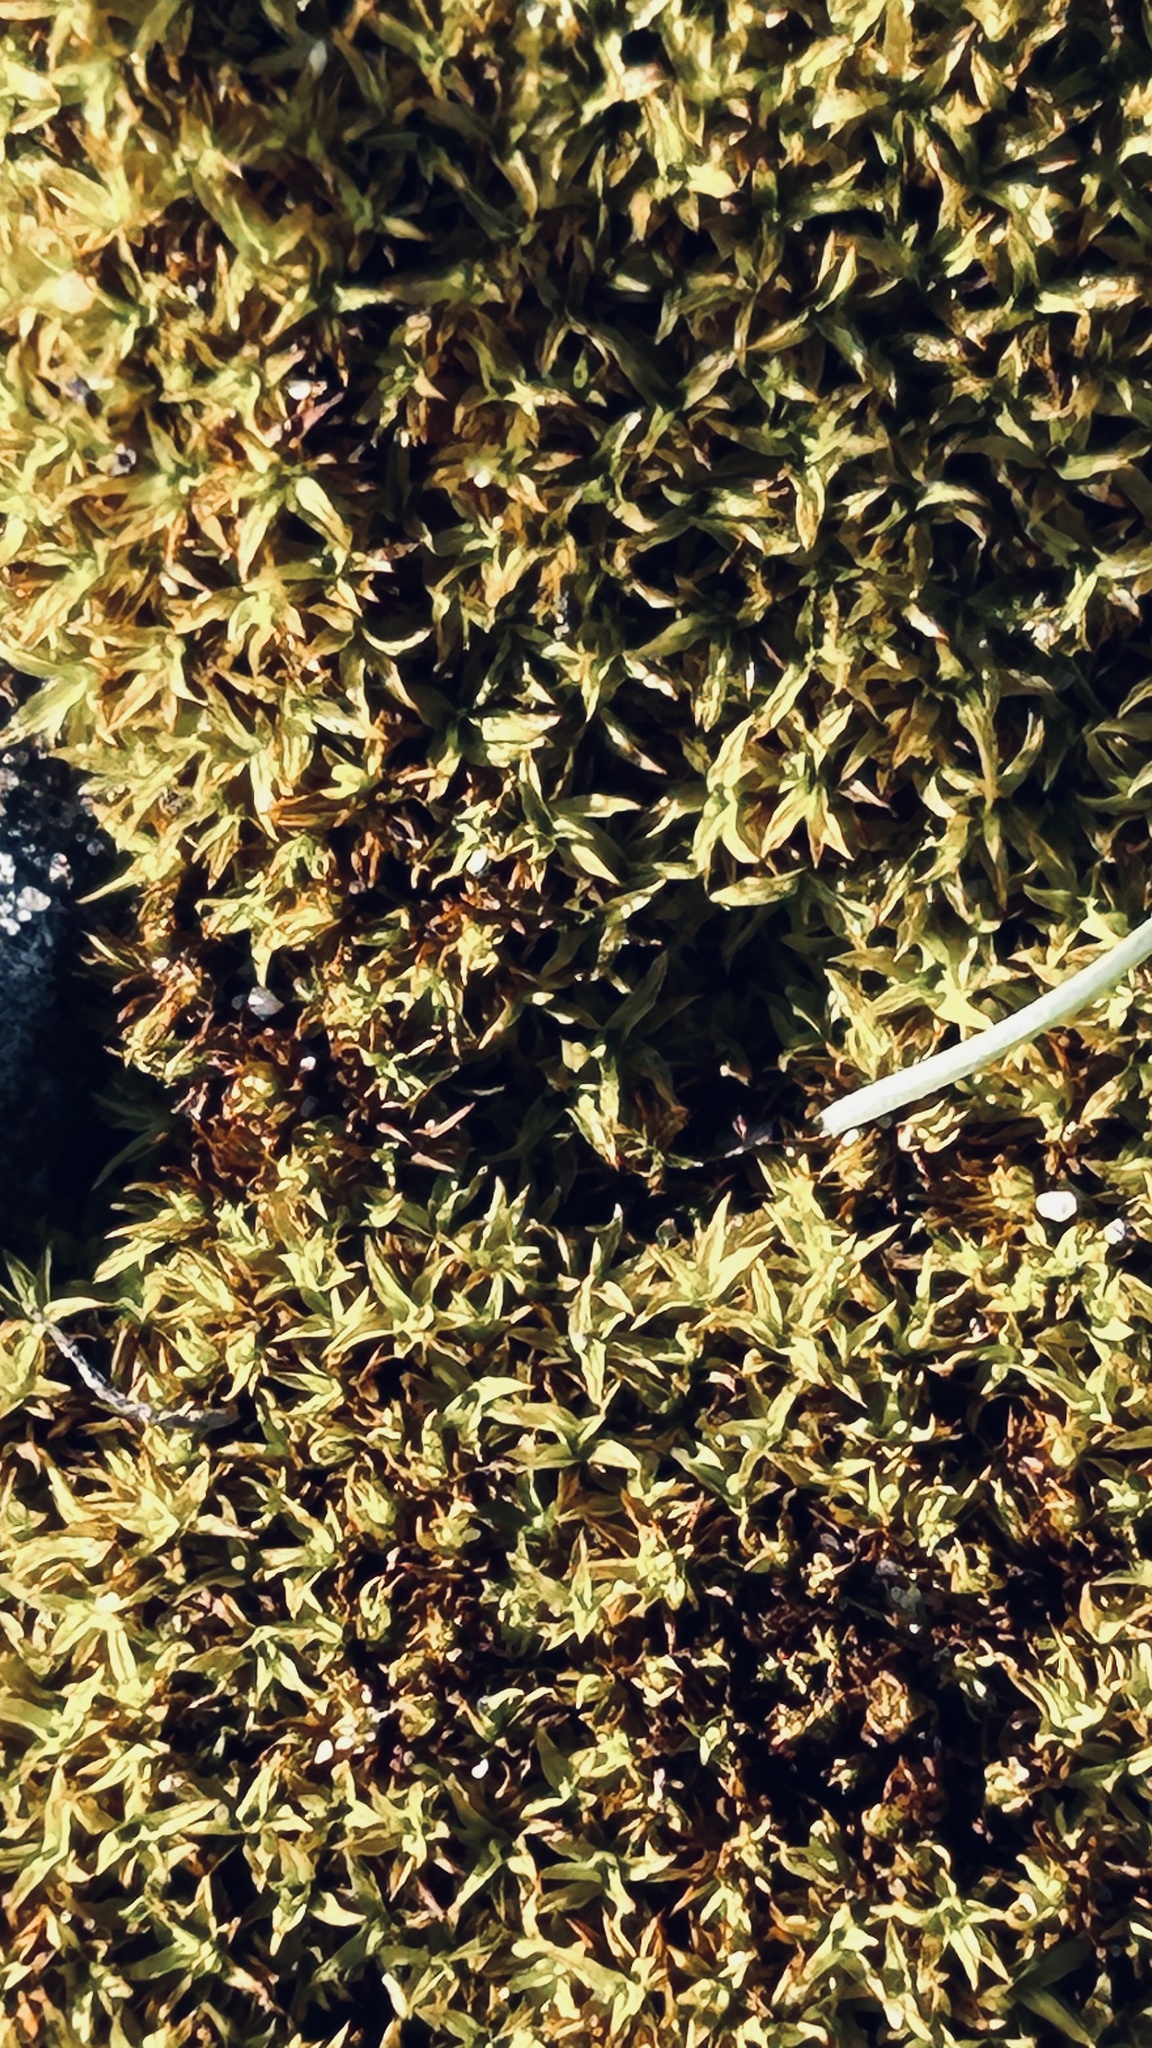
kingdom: Plantae
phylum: Bryophyta
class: Bryopsida
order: Pottiales
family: Pottiaceae
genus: Trichostomum
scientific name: Trichostomum brachydontium
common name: Variable crisp-moss
